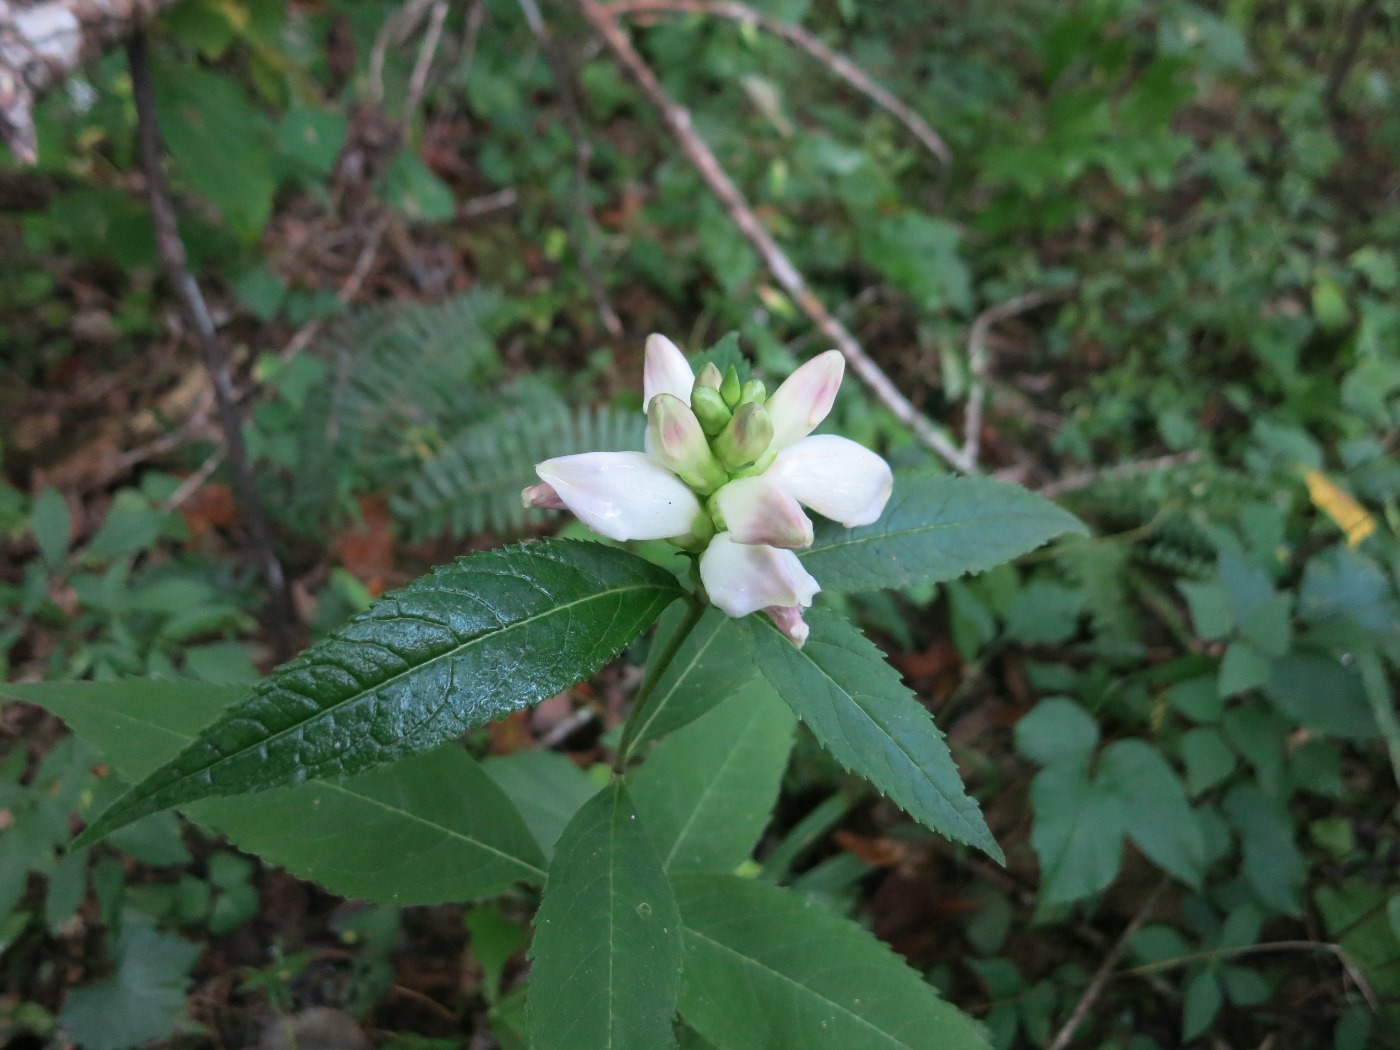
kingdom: Plantae
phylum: Tracheophyta
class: Magnoliopsida
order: Lamiales
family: Plantaginaceae
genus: Chelone
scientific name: Chelone glabra
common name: Snakehead
